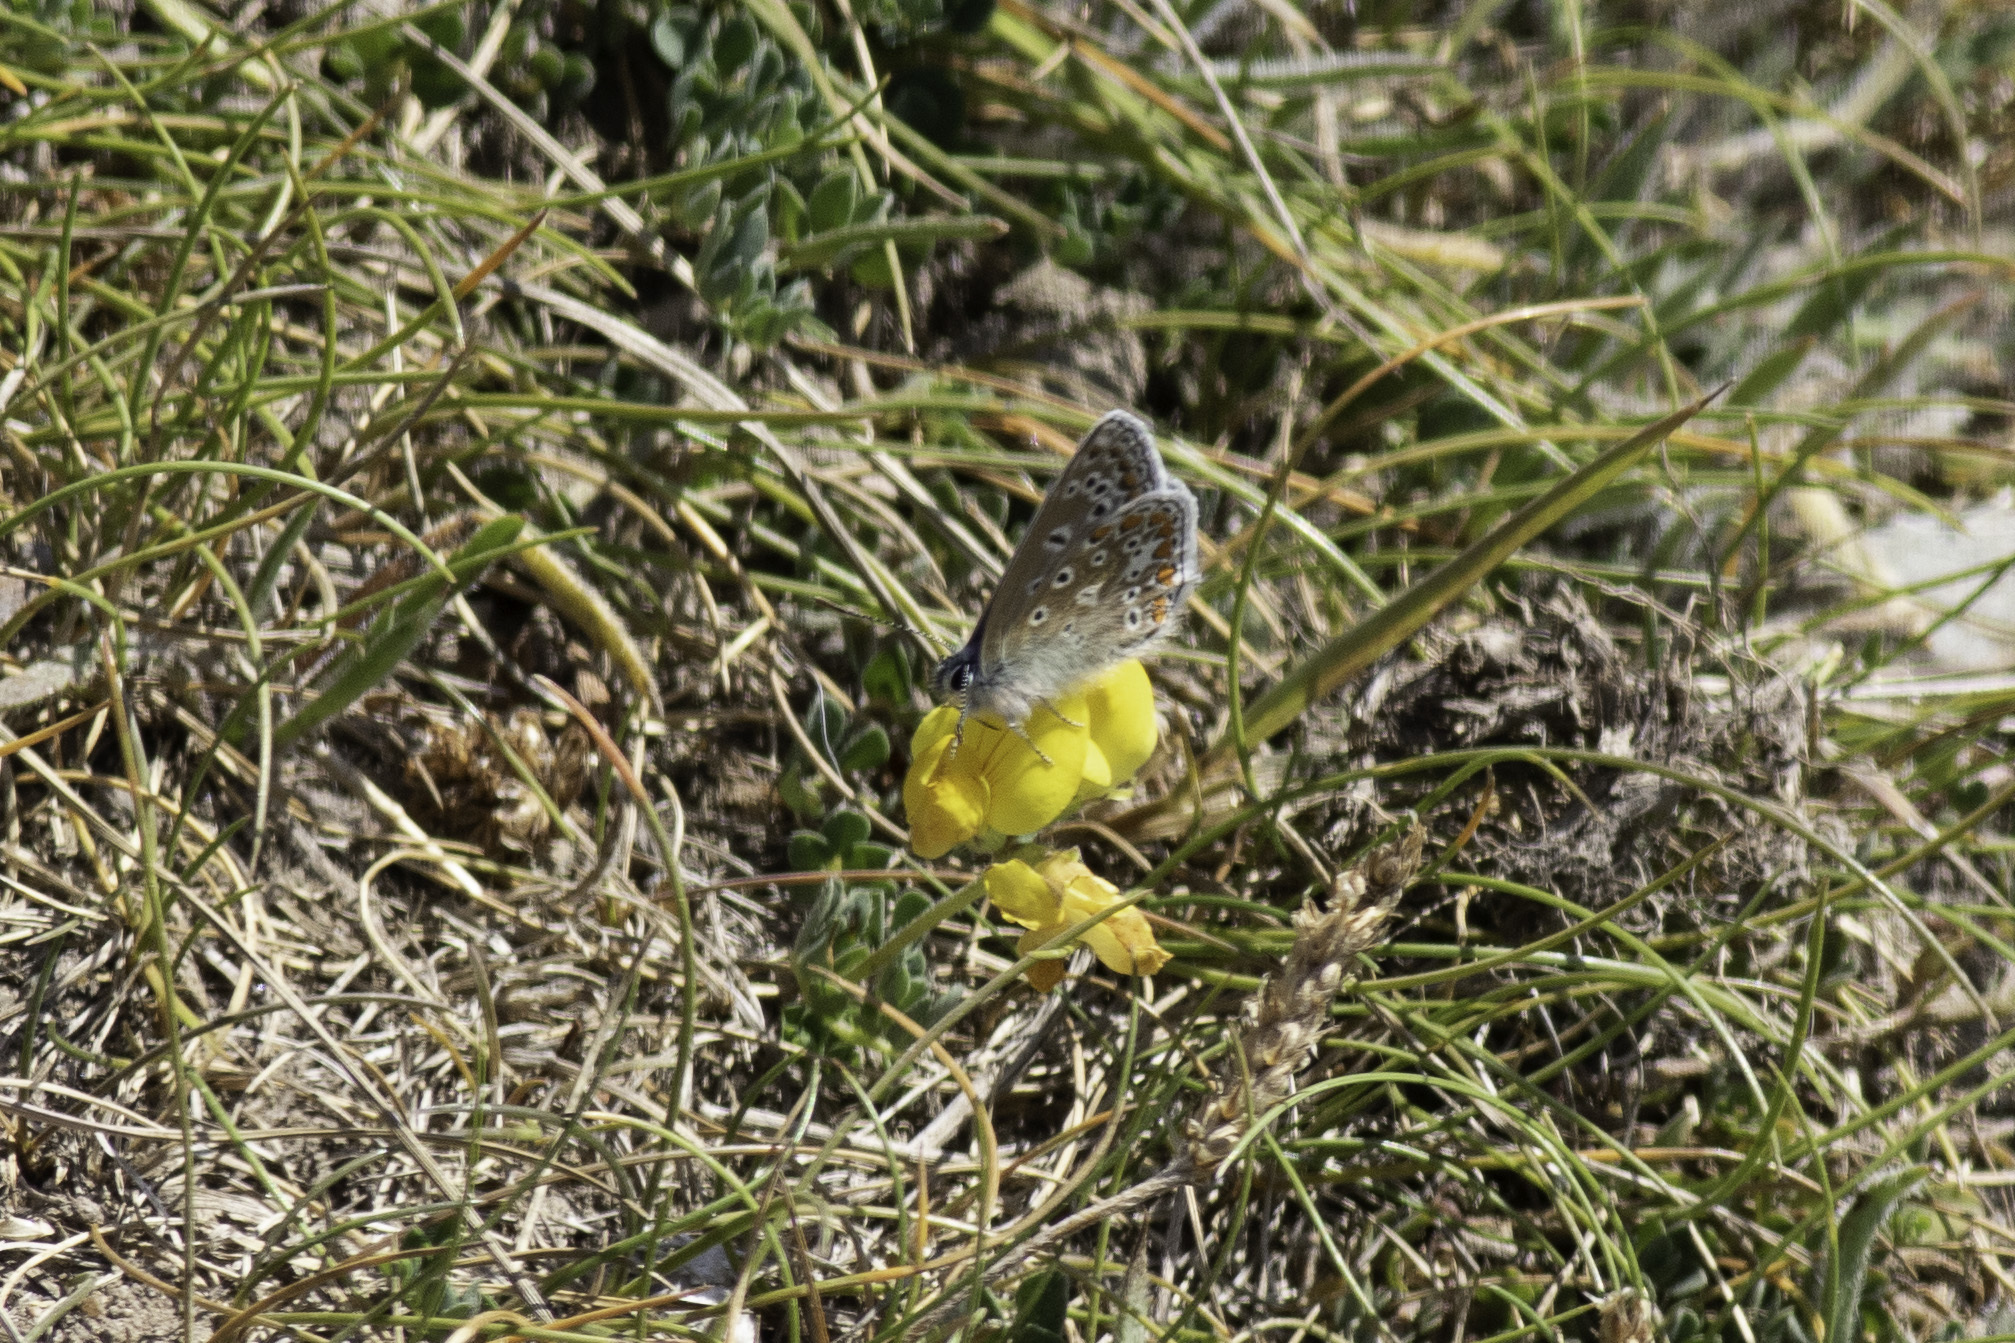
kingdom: Animalia
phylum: Arthropoda
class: Insecta
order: Lepidoptera
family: Lycaenidae
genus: Polyommatus
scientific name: Polyommatus icarus
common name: Common blue
